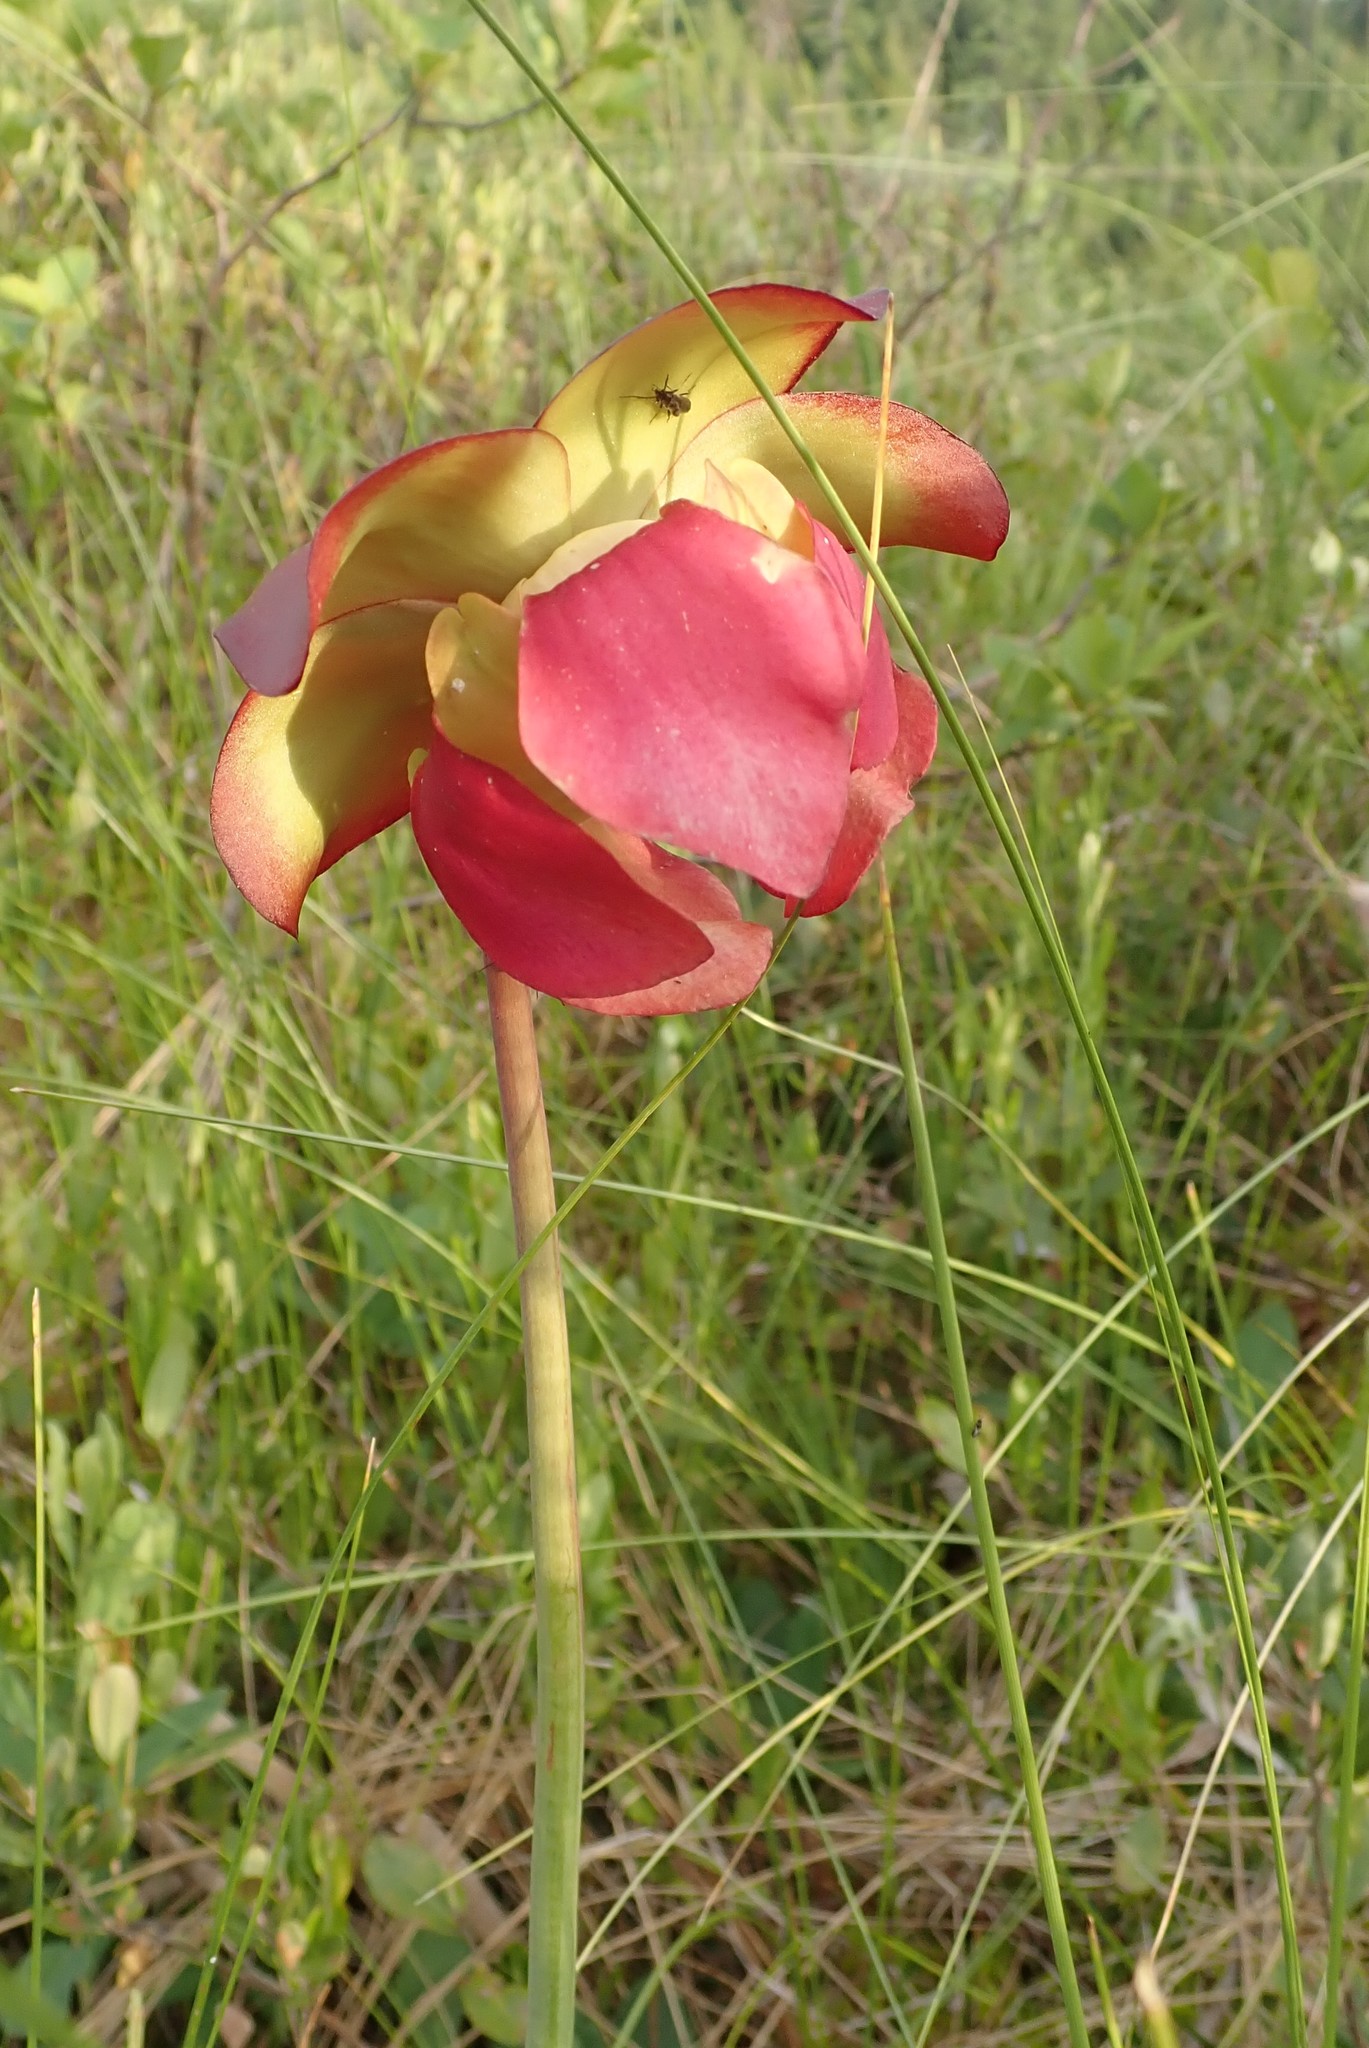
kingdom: Plantae
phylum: Tracheophyta
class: Magnoliopsida
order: Ericales
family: Sarraceniaceae
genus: Sarracenia
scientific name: Sarracenia purpurea
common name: Pitcherplant
